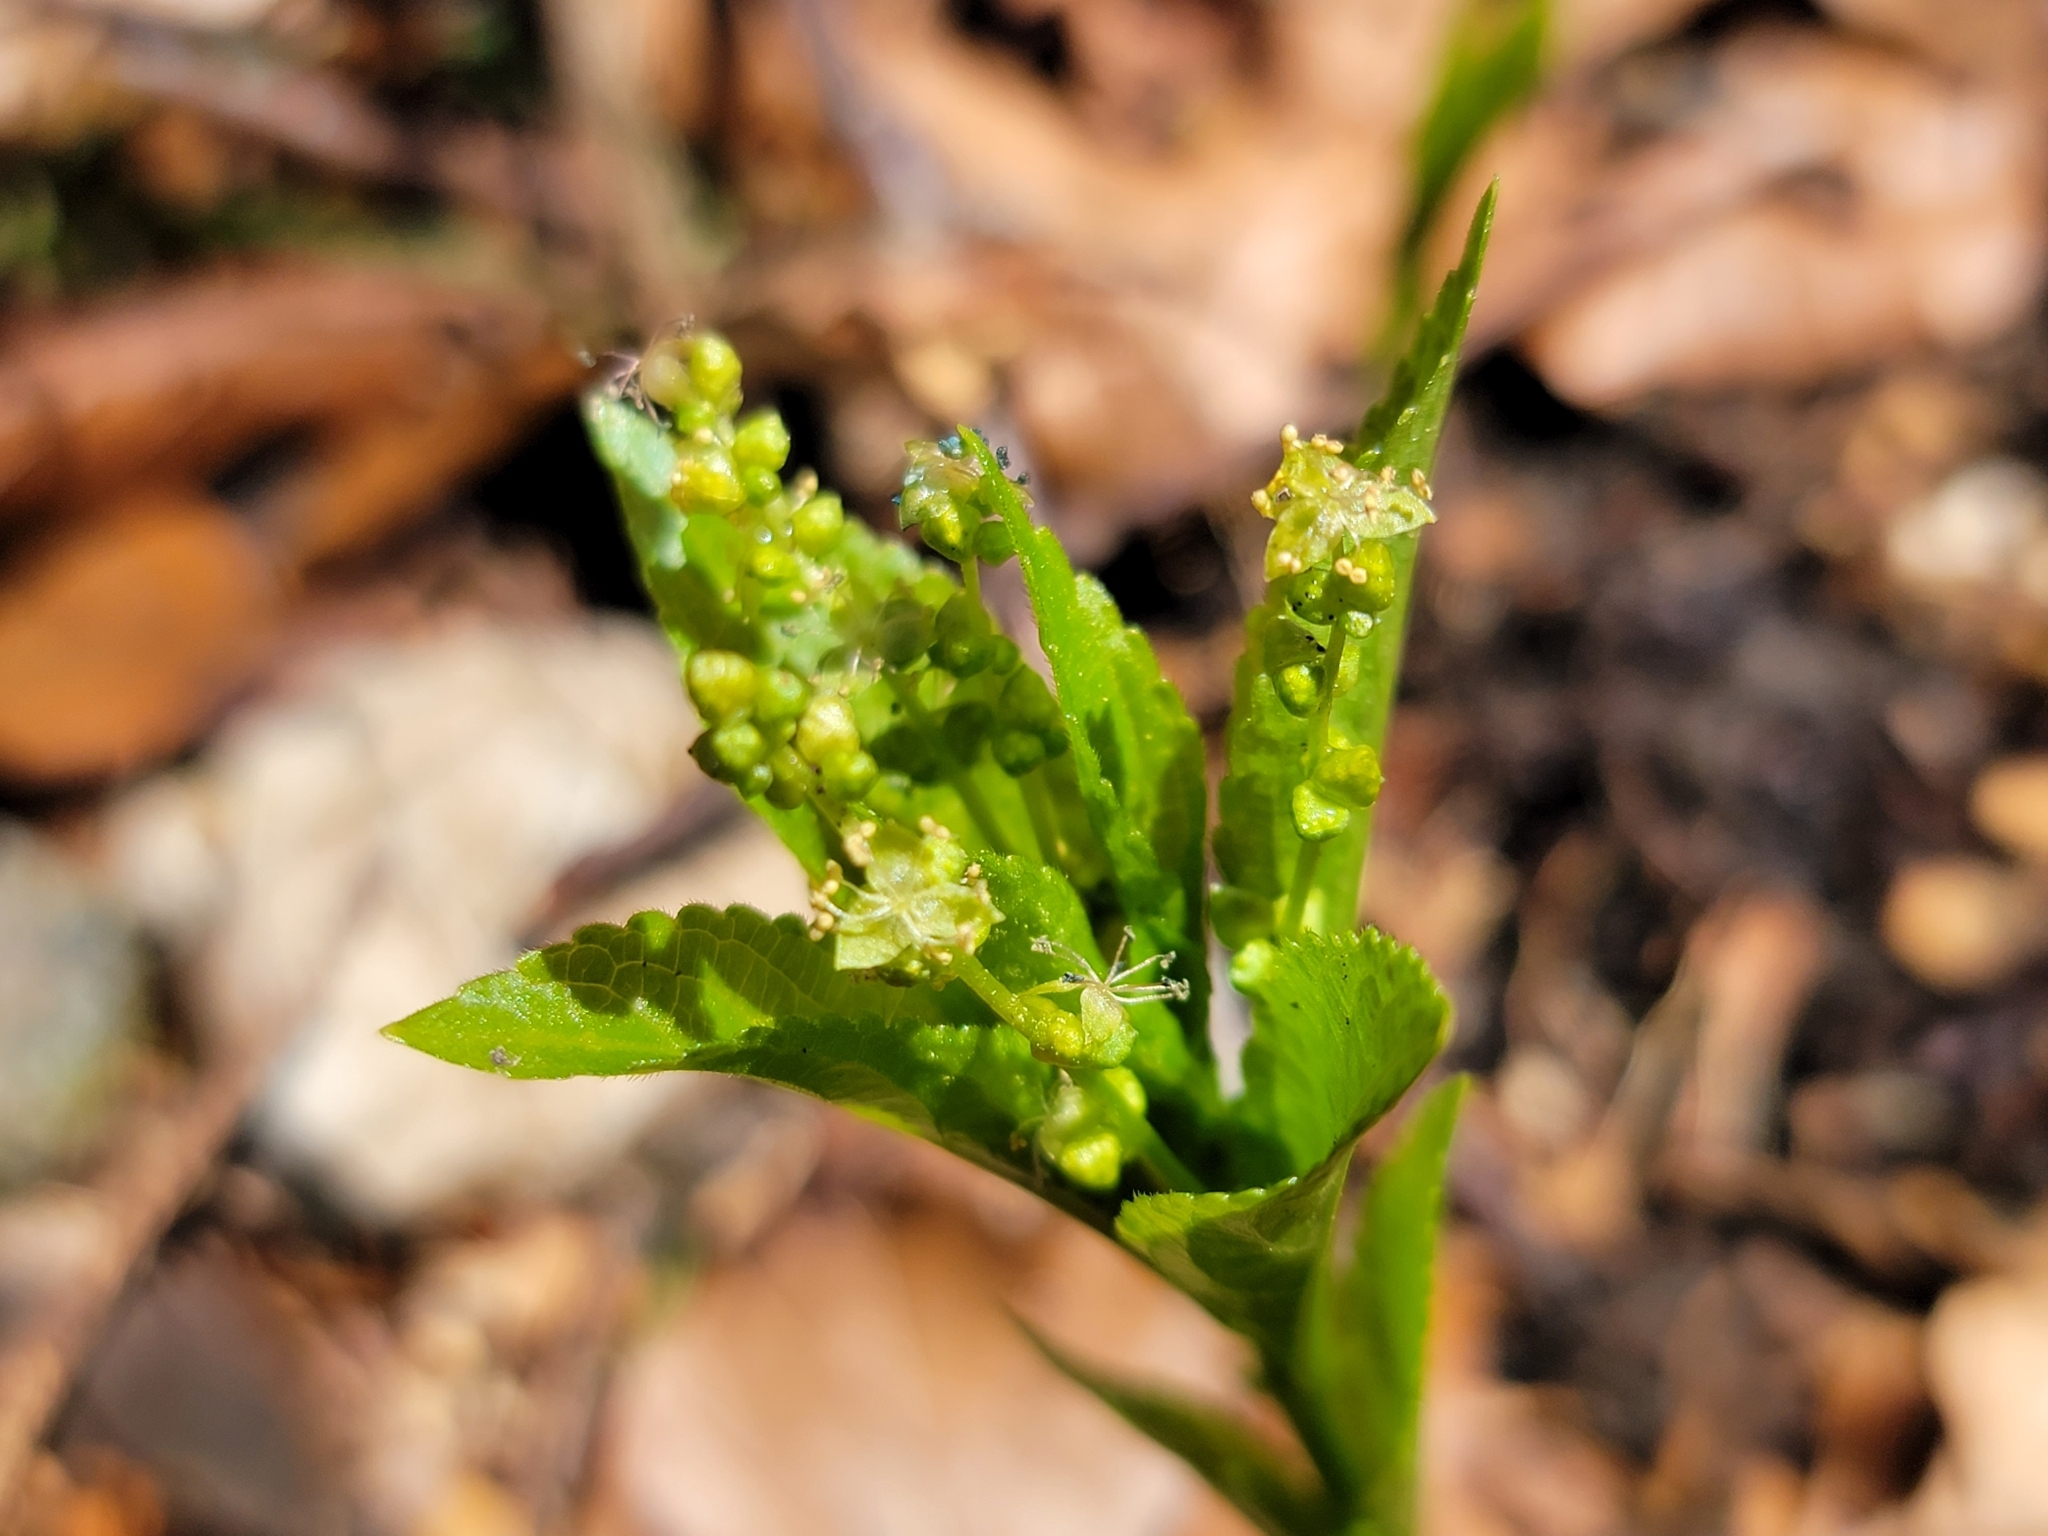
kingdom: Plantae
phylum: Tracheophyta
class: Magnoliopsida
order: Malpighiales
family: Euphorbiaceae
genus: Mercurialis
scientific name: Mercurialis perennis
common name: Dog mercury
